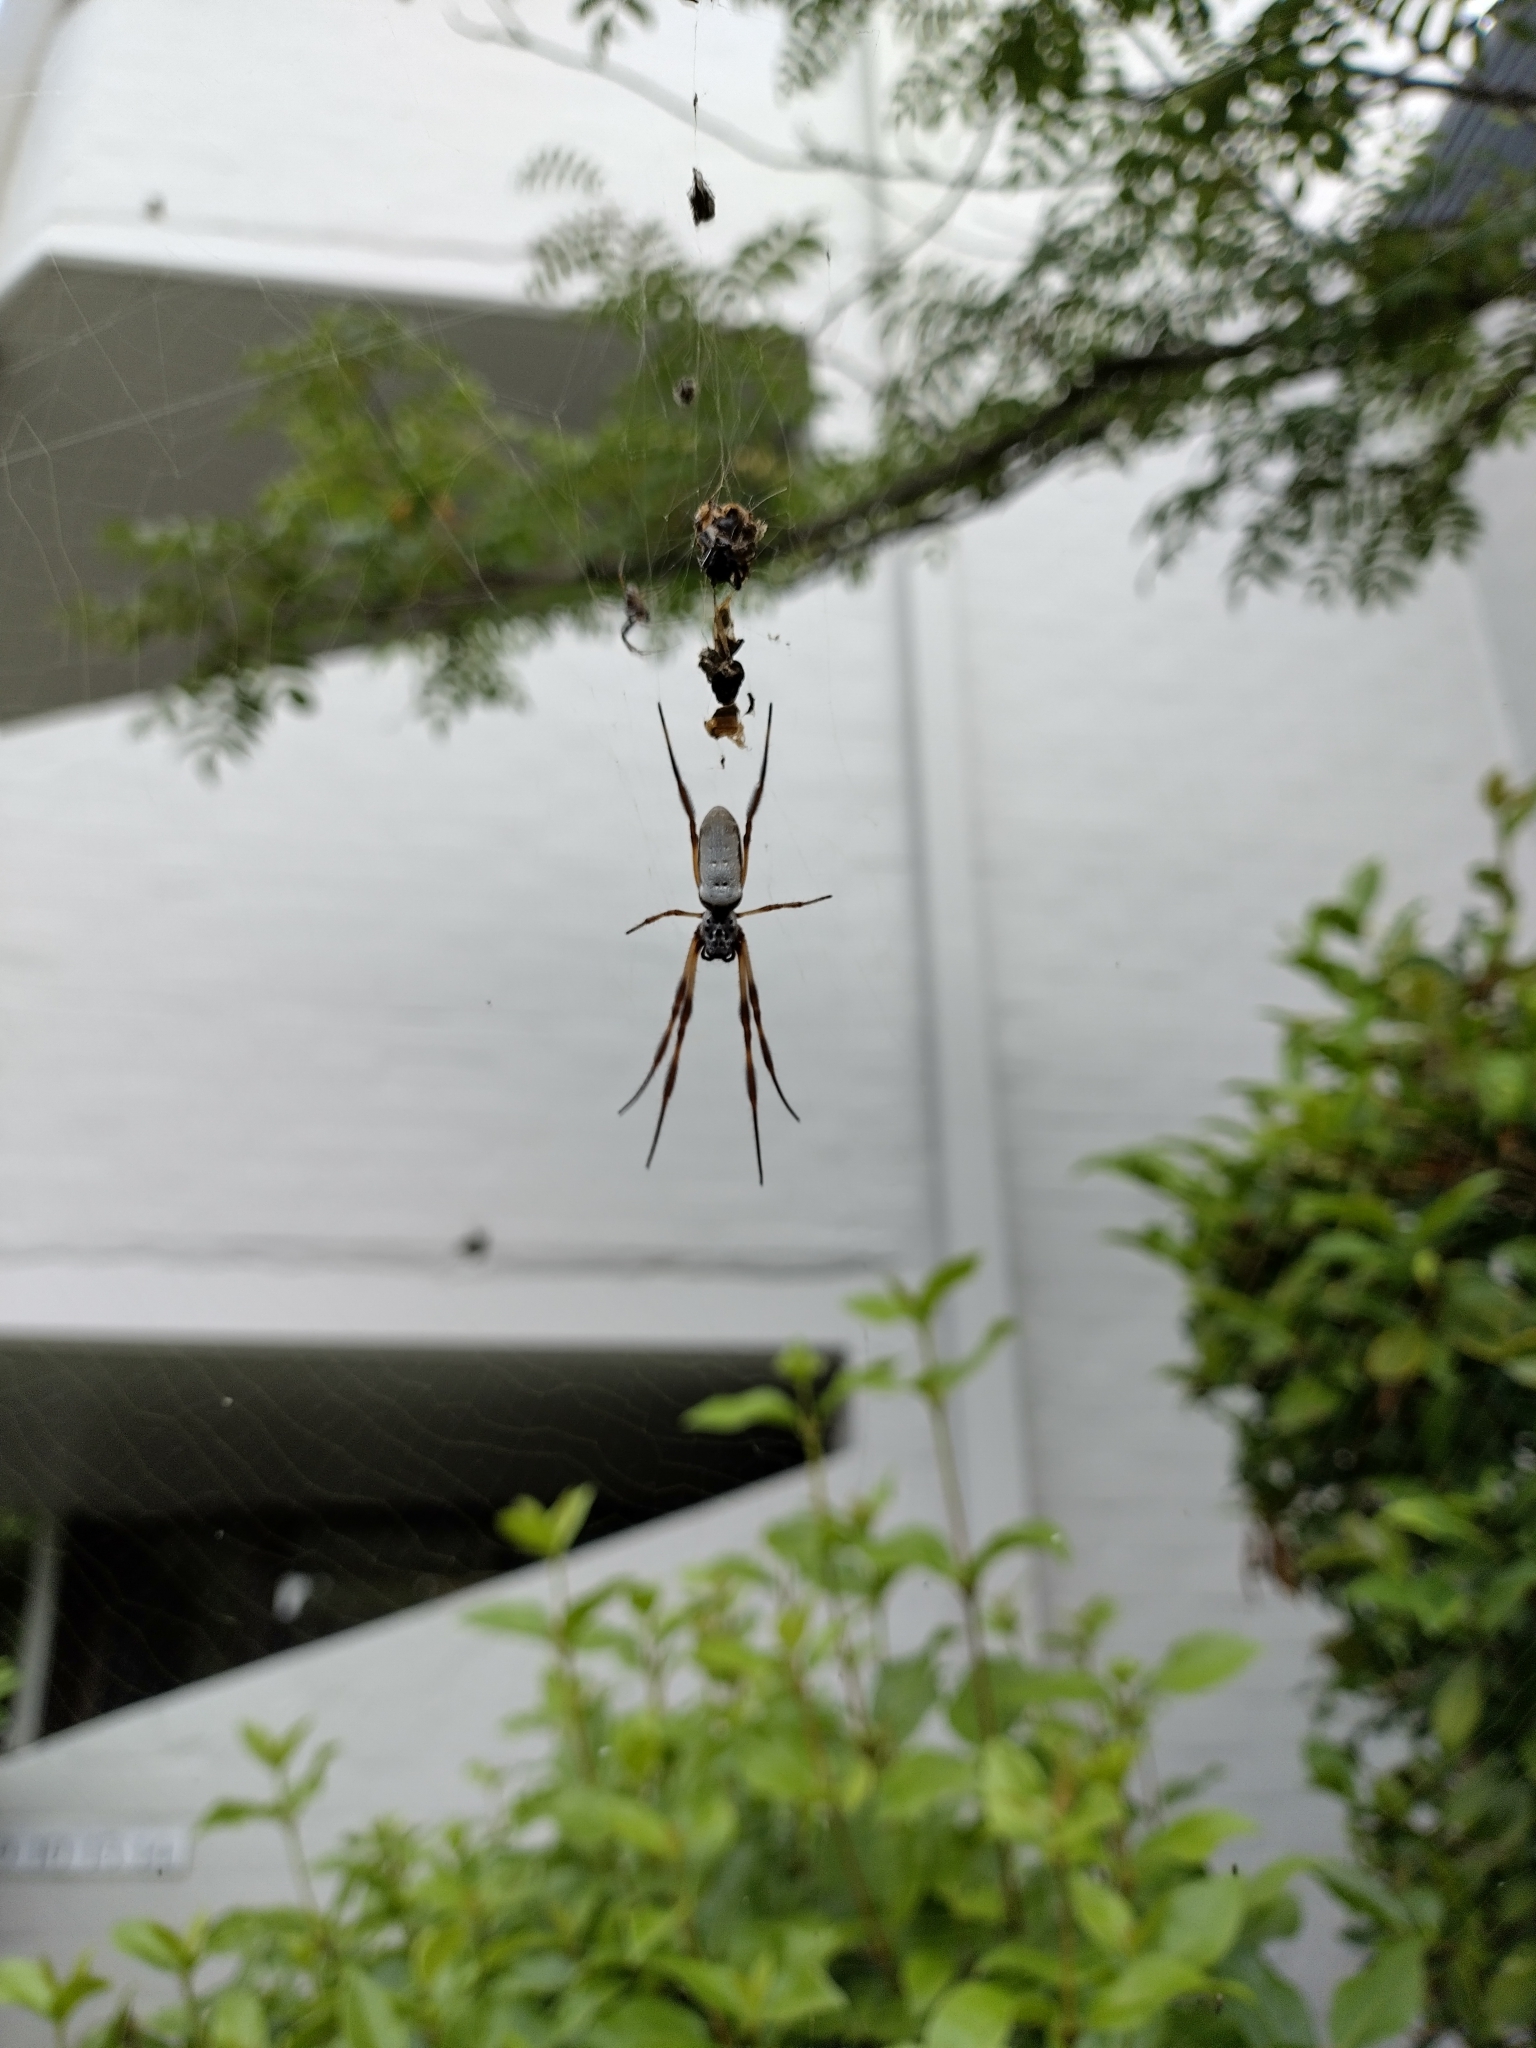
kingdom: Animalia
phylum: Arthropoda
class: Arachnida
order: Araneae
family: Araneidae
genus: Trichonephila
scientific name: Trichonephila edulis
